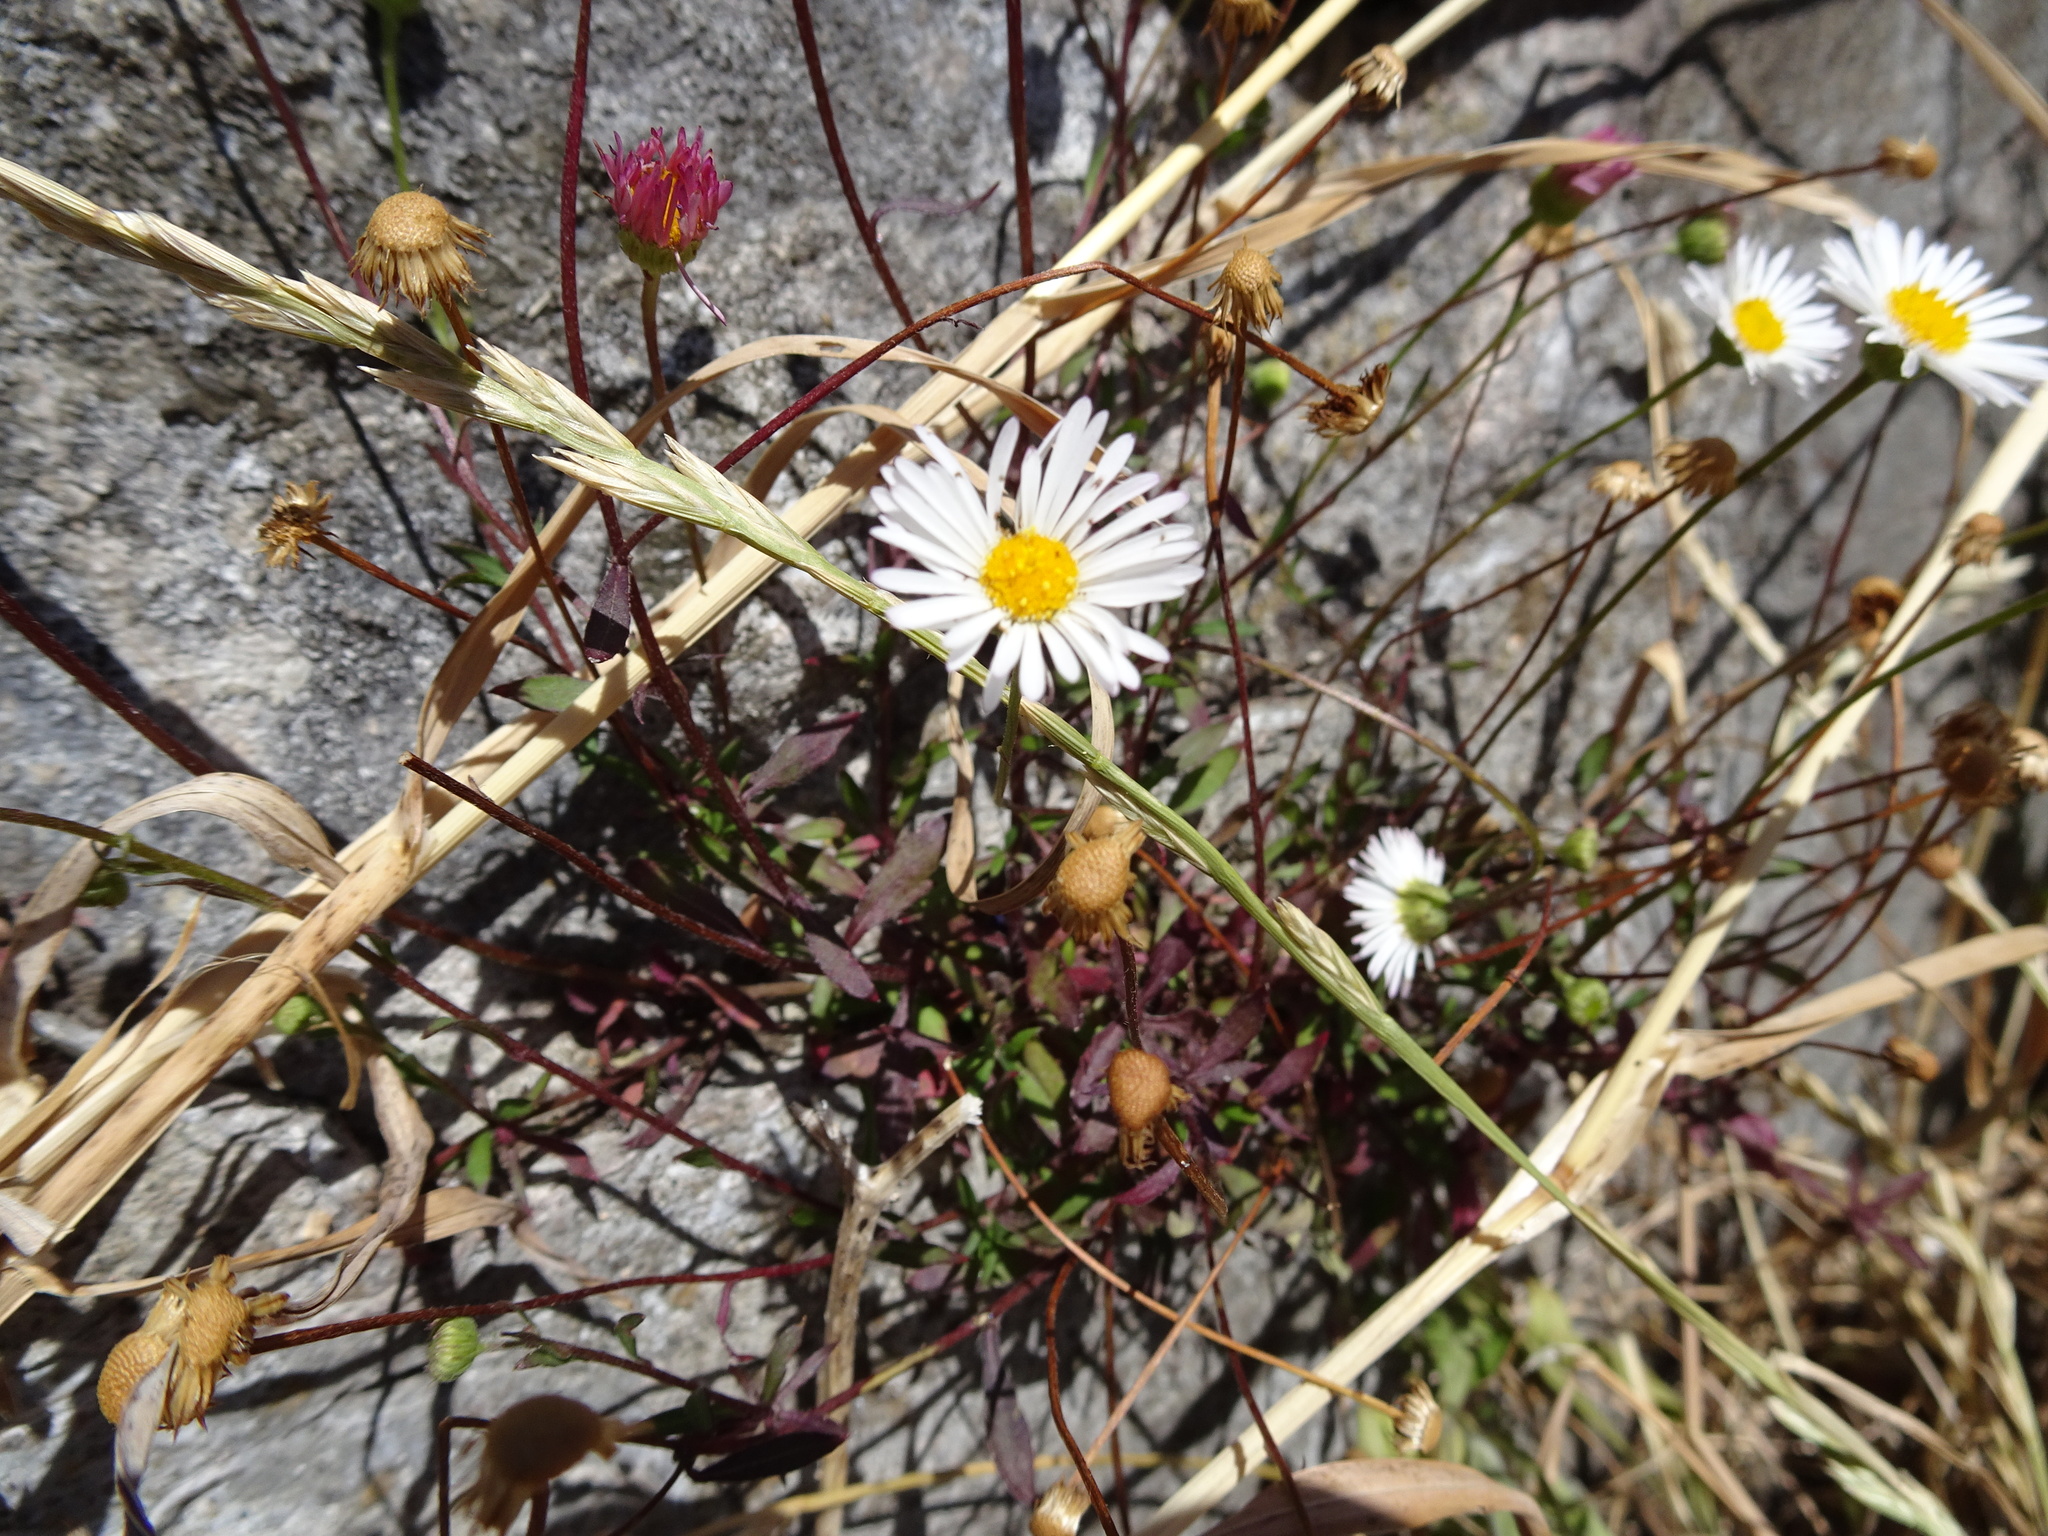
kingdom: Plantae
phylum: Tracheophyta
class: Magnoliopsida
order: Asterales
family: Asteraceae
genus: Erigeron
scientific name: Erigeron karvinskianus
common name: Mexican fleabane
